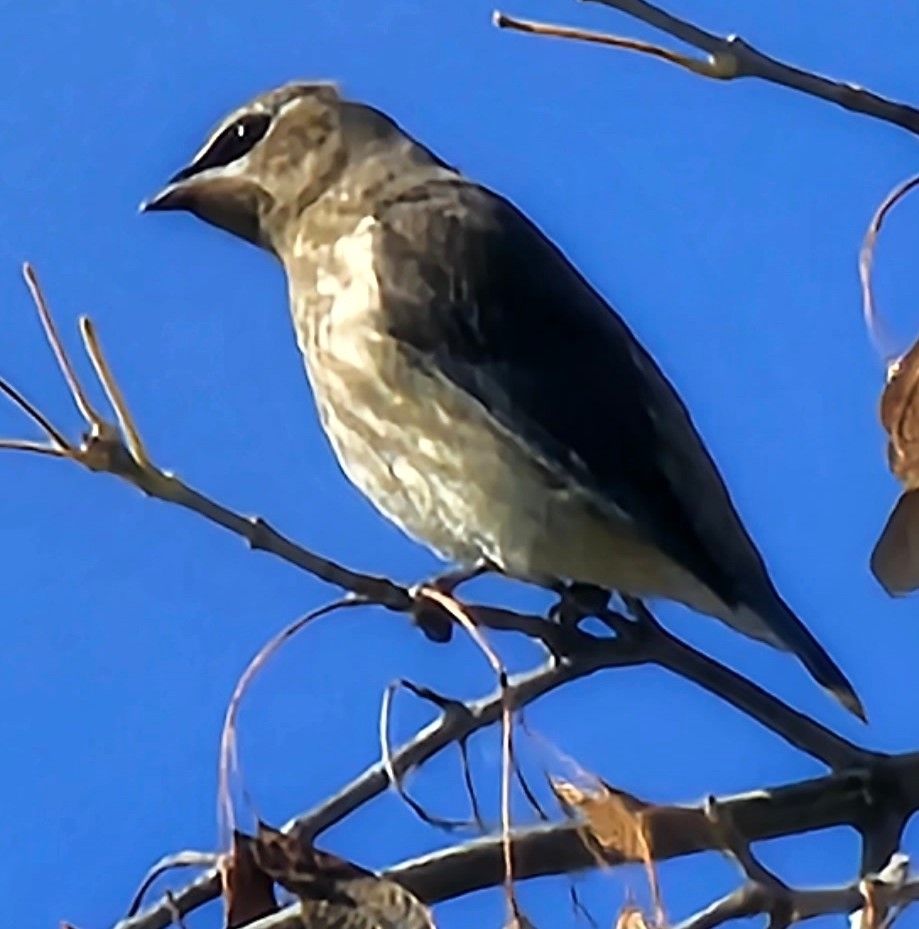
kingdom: Animalia
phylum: Chordata
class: Aves
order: Passeriformes
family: Bombycillidae
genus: Bombycilla
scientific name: Bombycilla cedrorum
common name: Cedar waxwing
